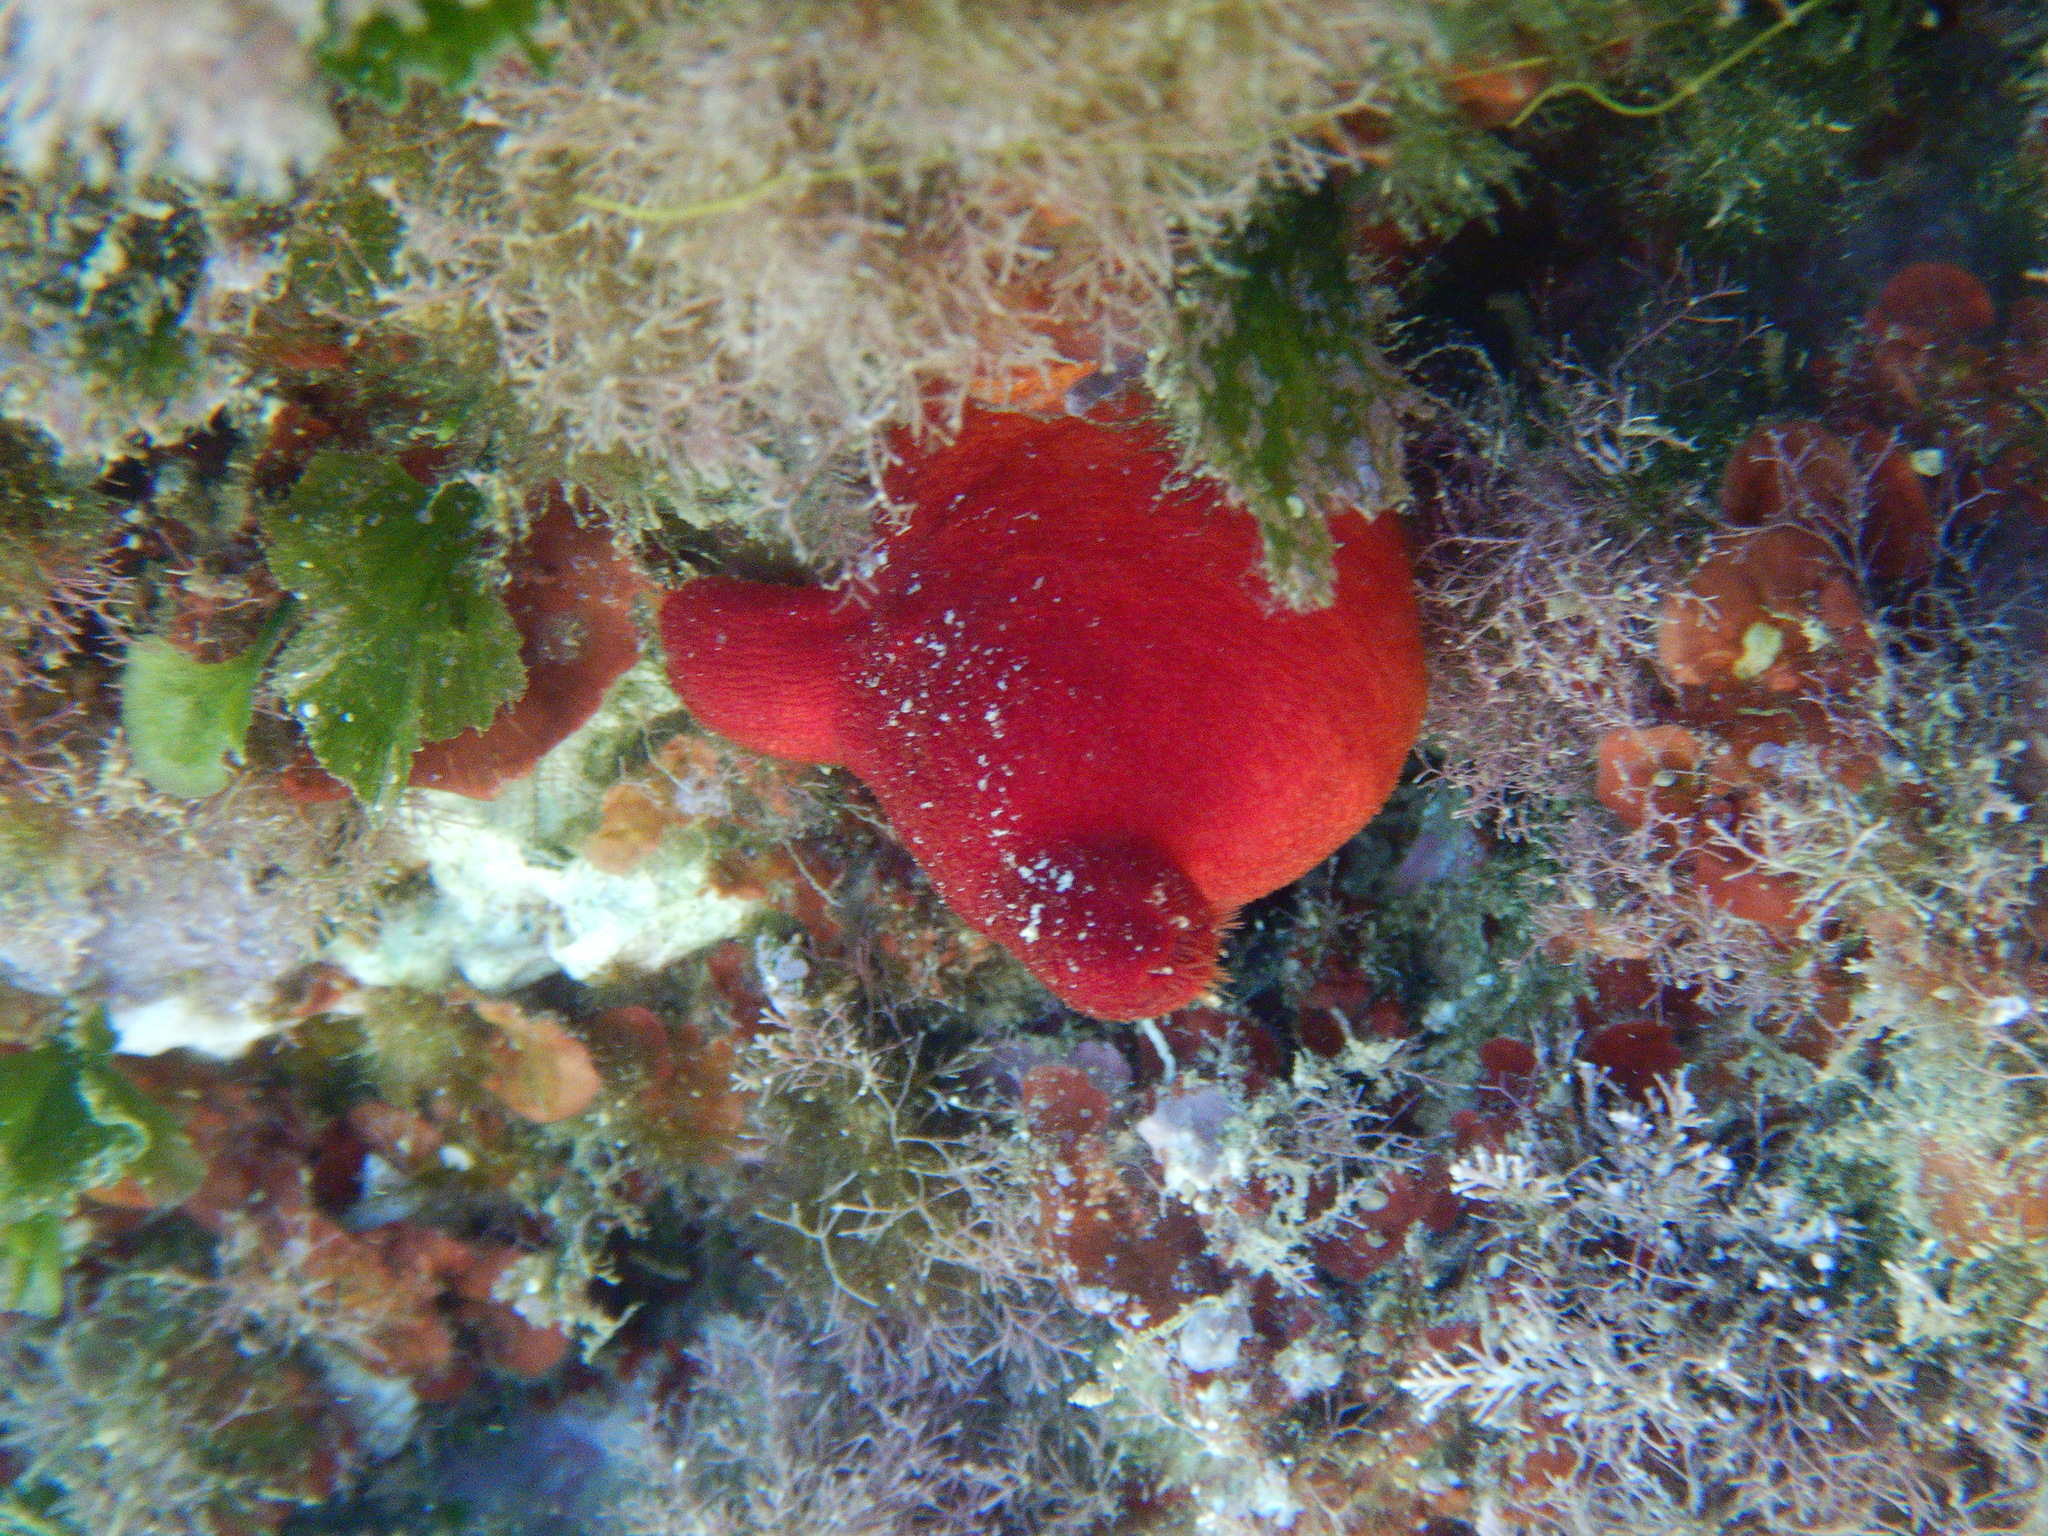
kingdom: Animalia
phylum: Chordata
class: Ascidiacea
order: Stolidobranchia
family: Pyuridae
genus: Halocynthia
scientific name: Halocynthia papillosa
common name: Red sea-squirt
